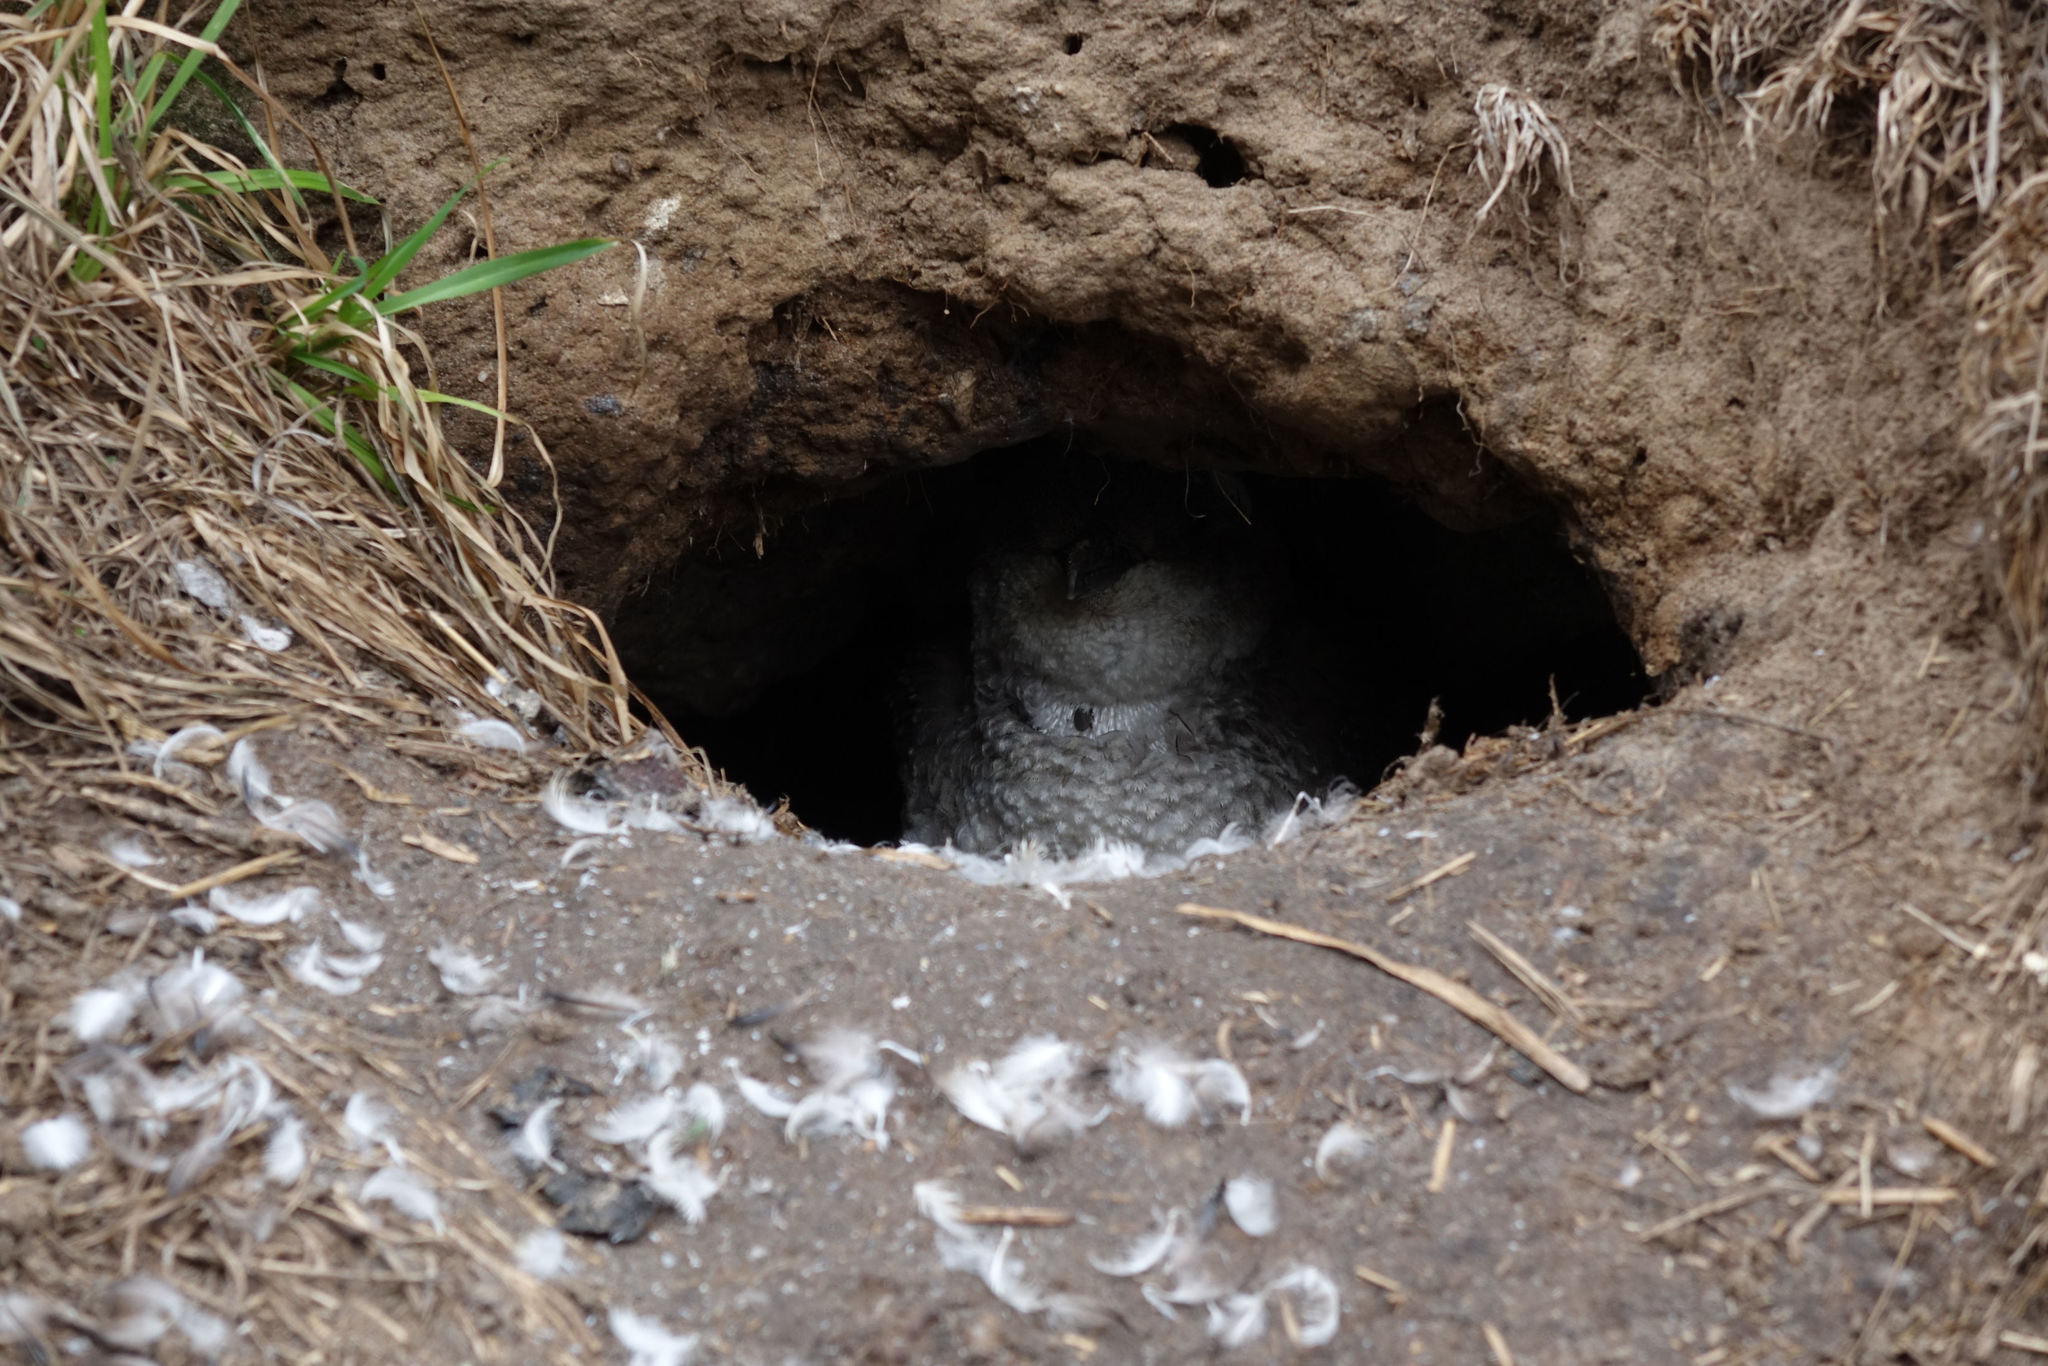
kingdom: Animalia
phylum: Chordata
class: Aves
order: Sphenisciformes
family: Spheniscidae
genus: Eudyptula
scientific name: Eudyptula minor
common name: Little penguin
